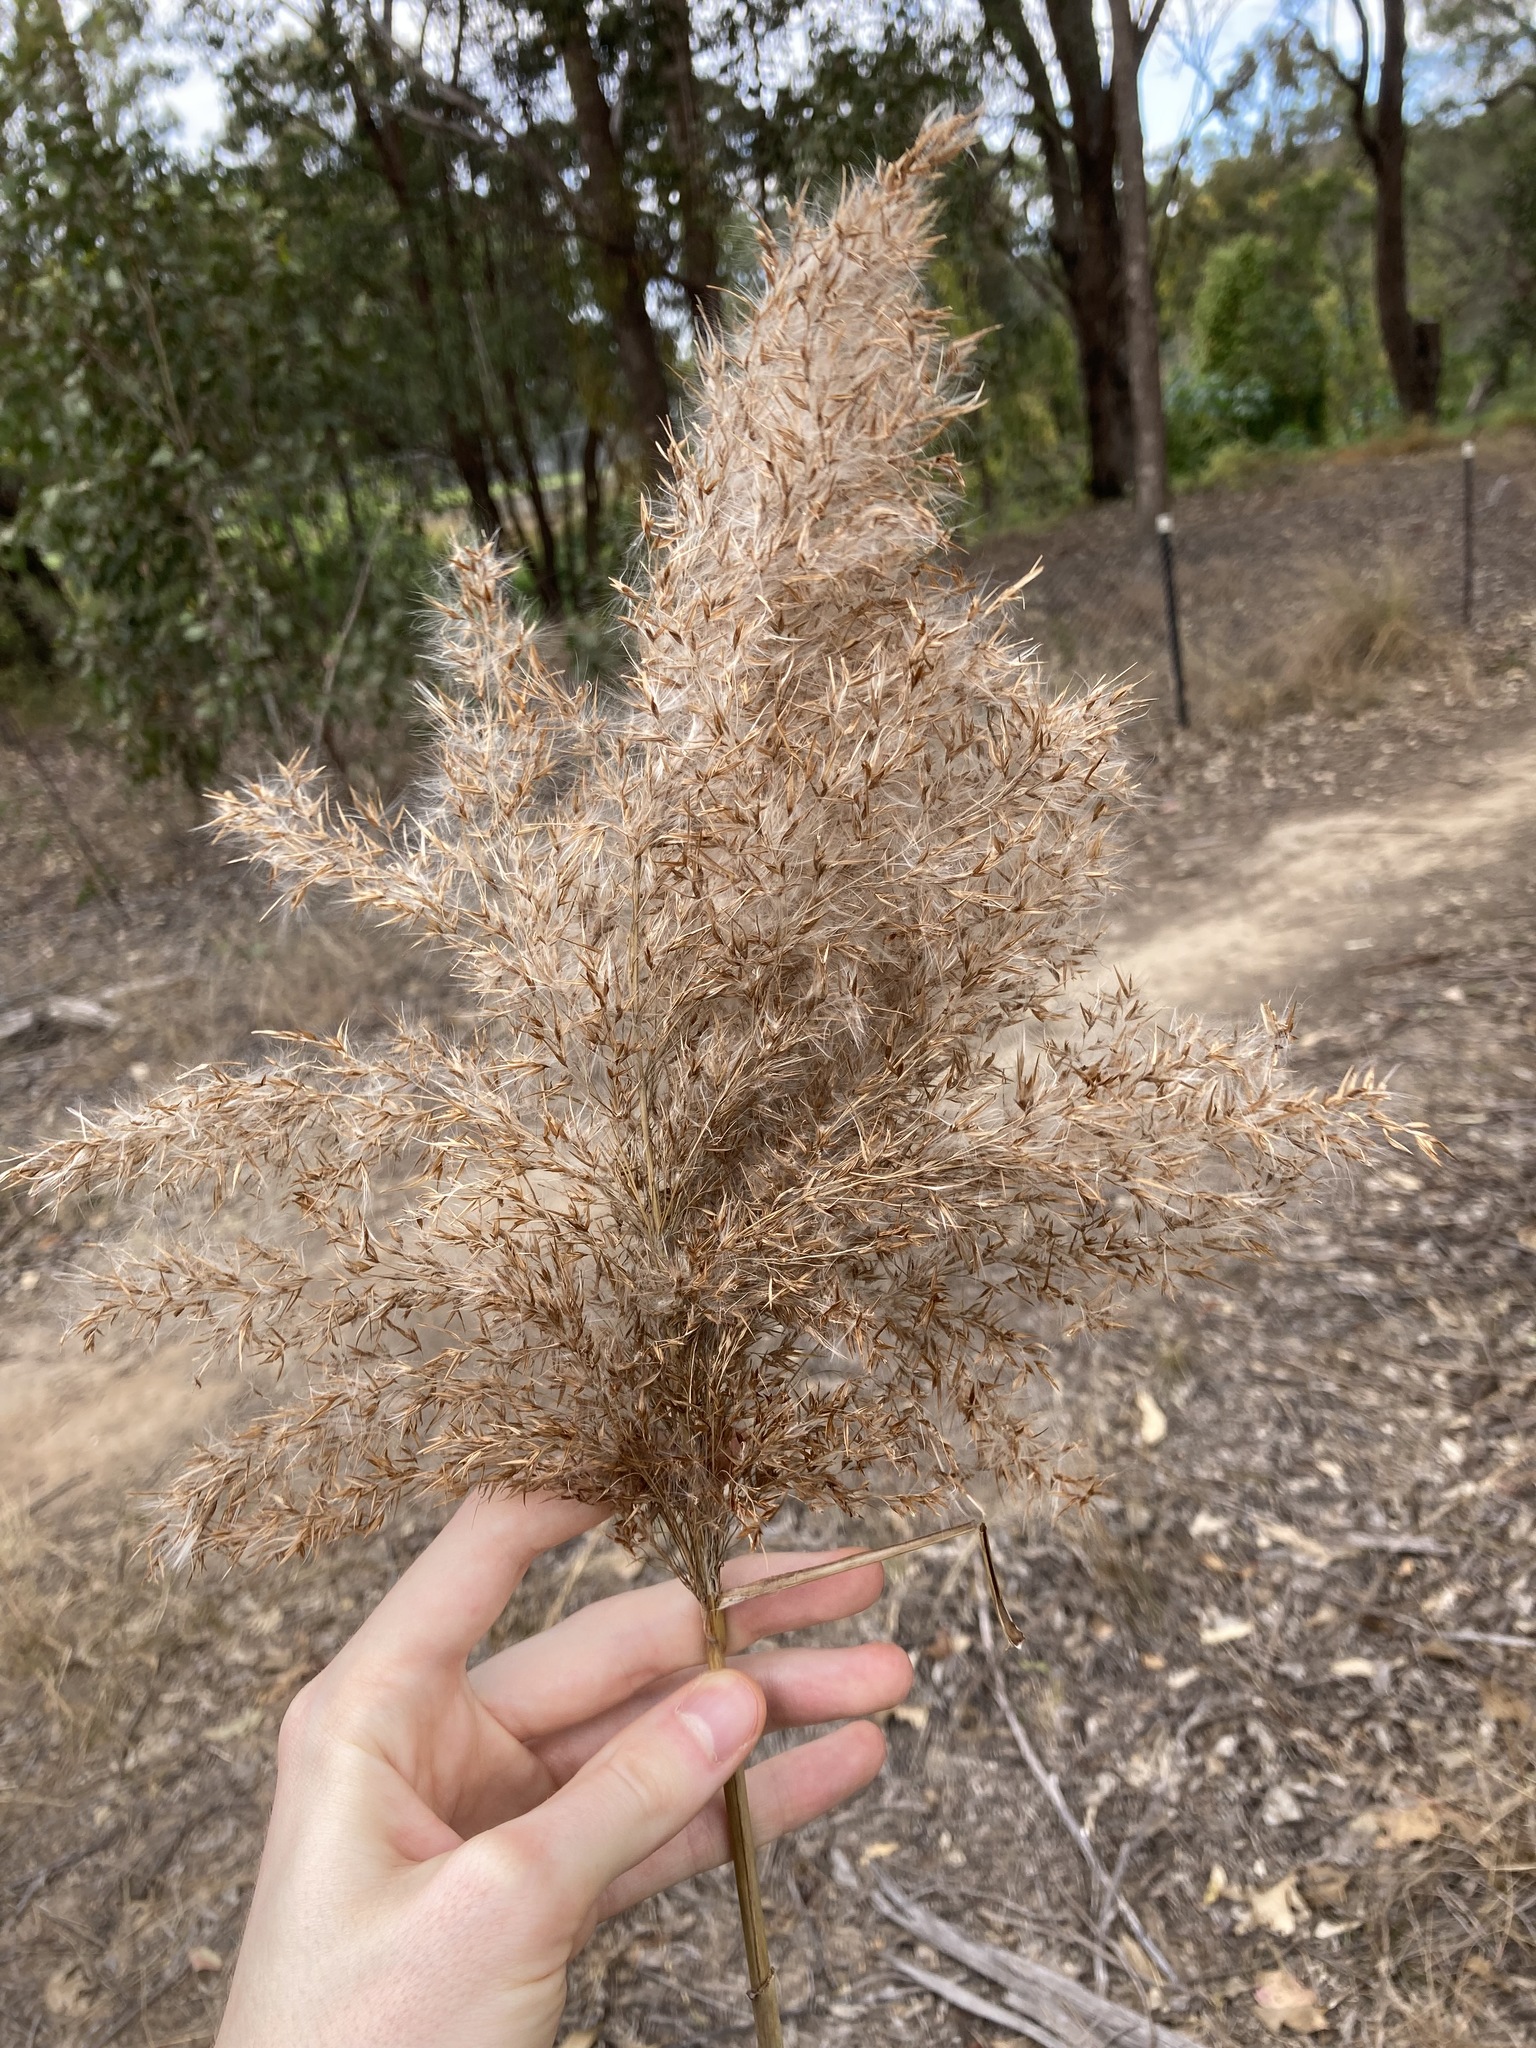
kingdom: Plantae
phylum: Tracheophyta
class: Liliopsida
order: Poales
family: Poaceae
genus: Phragmites
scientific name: Phragmites australis
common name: Common reed
